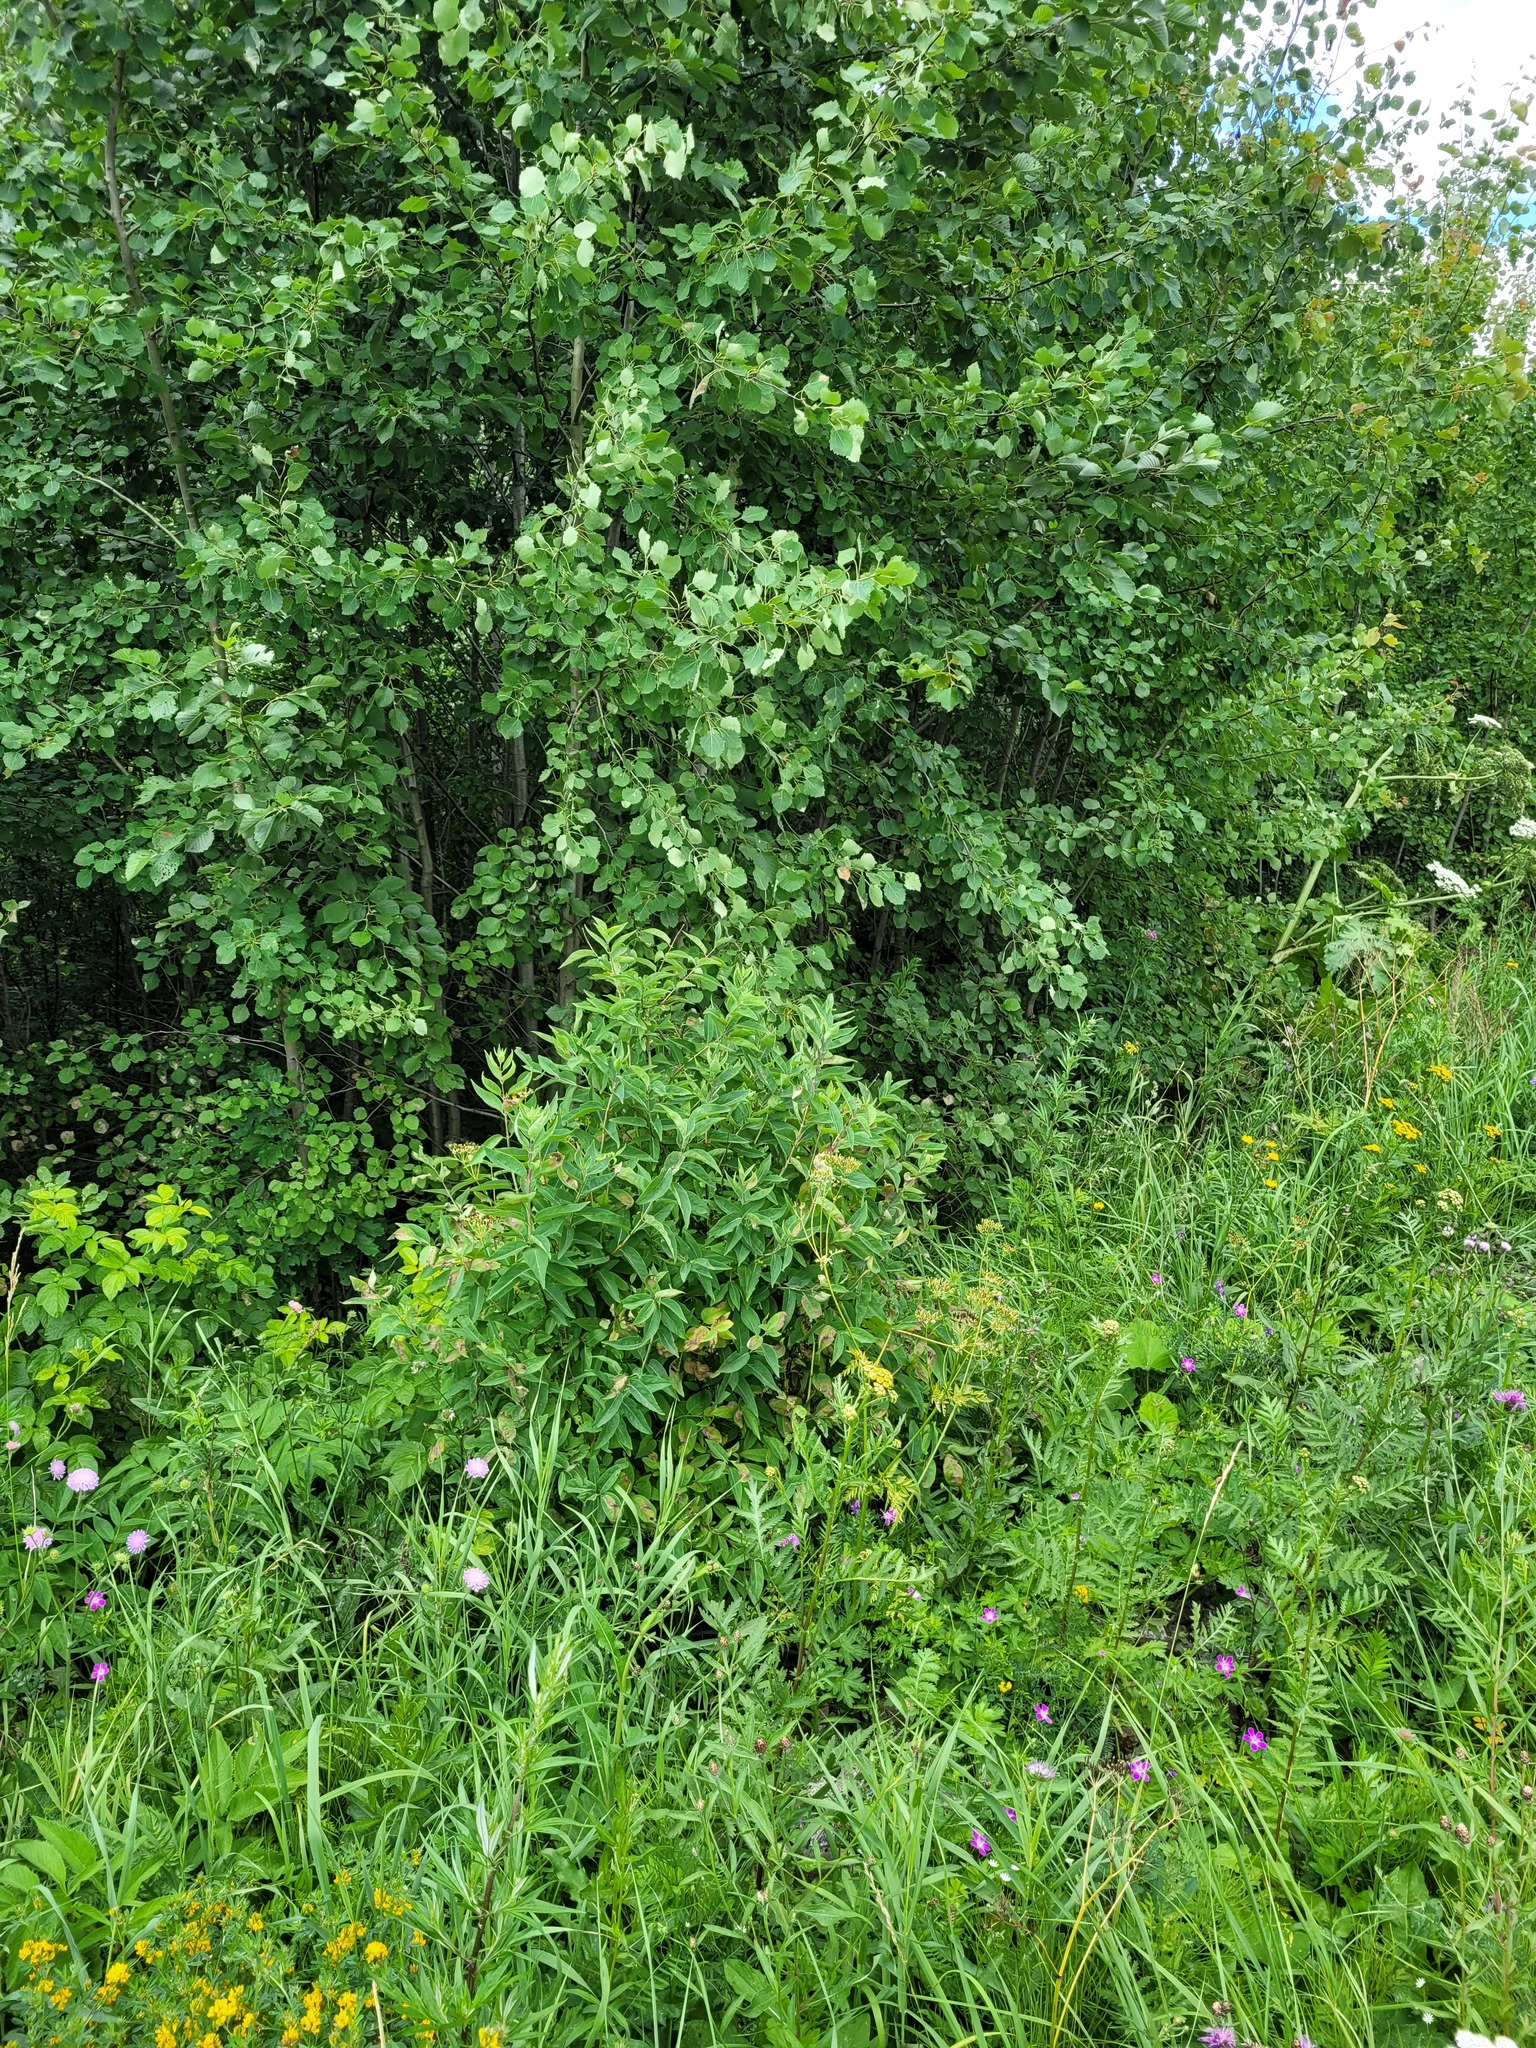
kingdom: Plantae
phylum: Tracheophyta
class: Magnoliopsida
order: Dipsacales
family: Caprifoliaceae
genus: Lonicera
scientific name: Lonicera tatarica
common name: Tatarian honeysuckle
